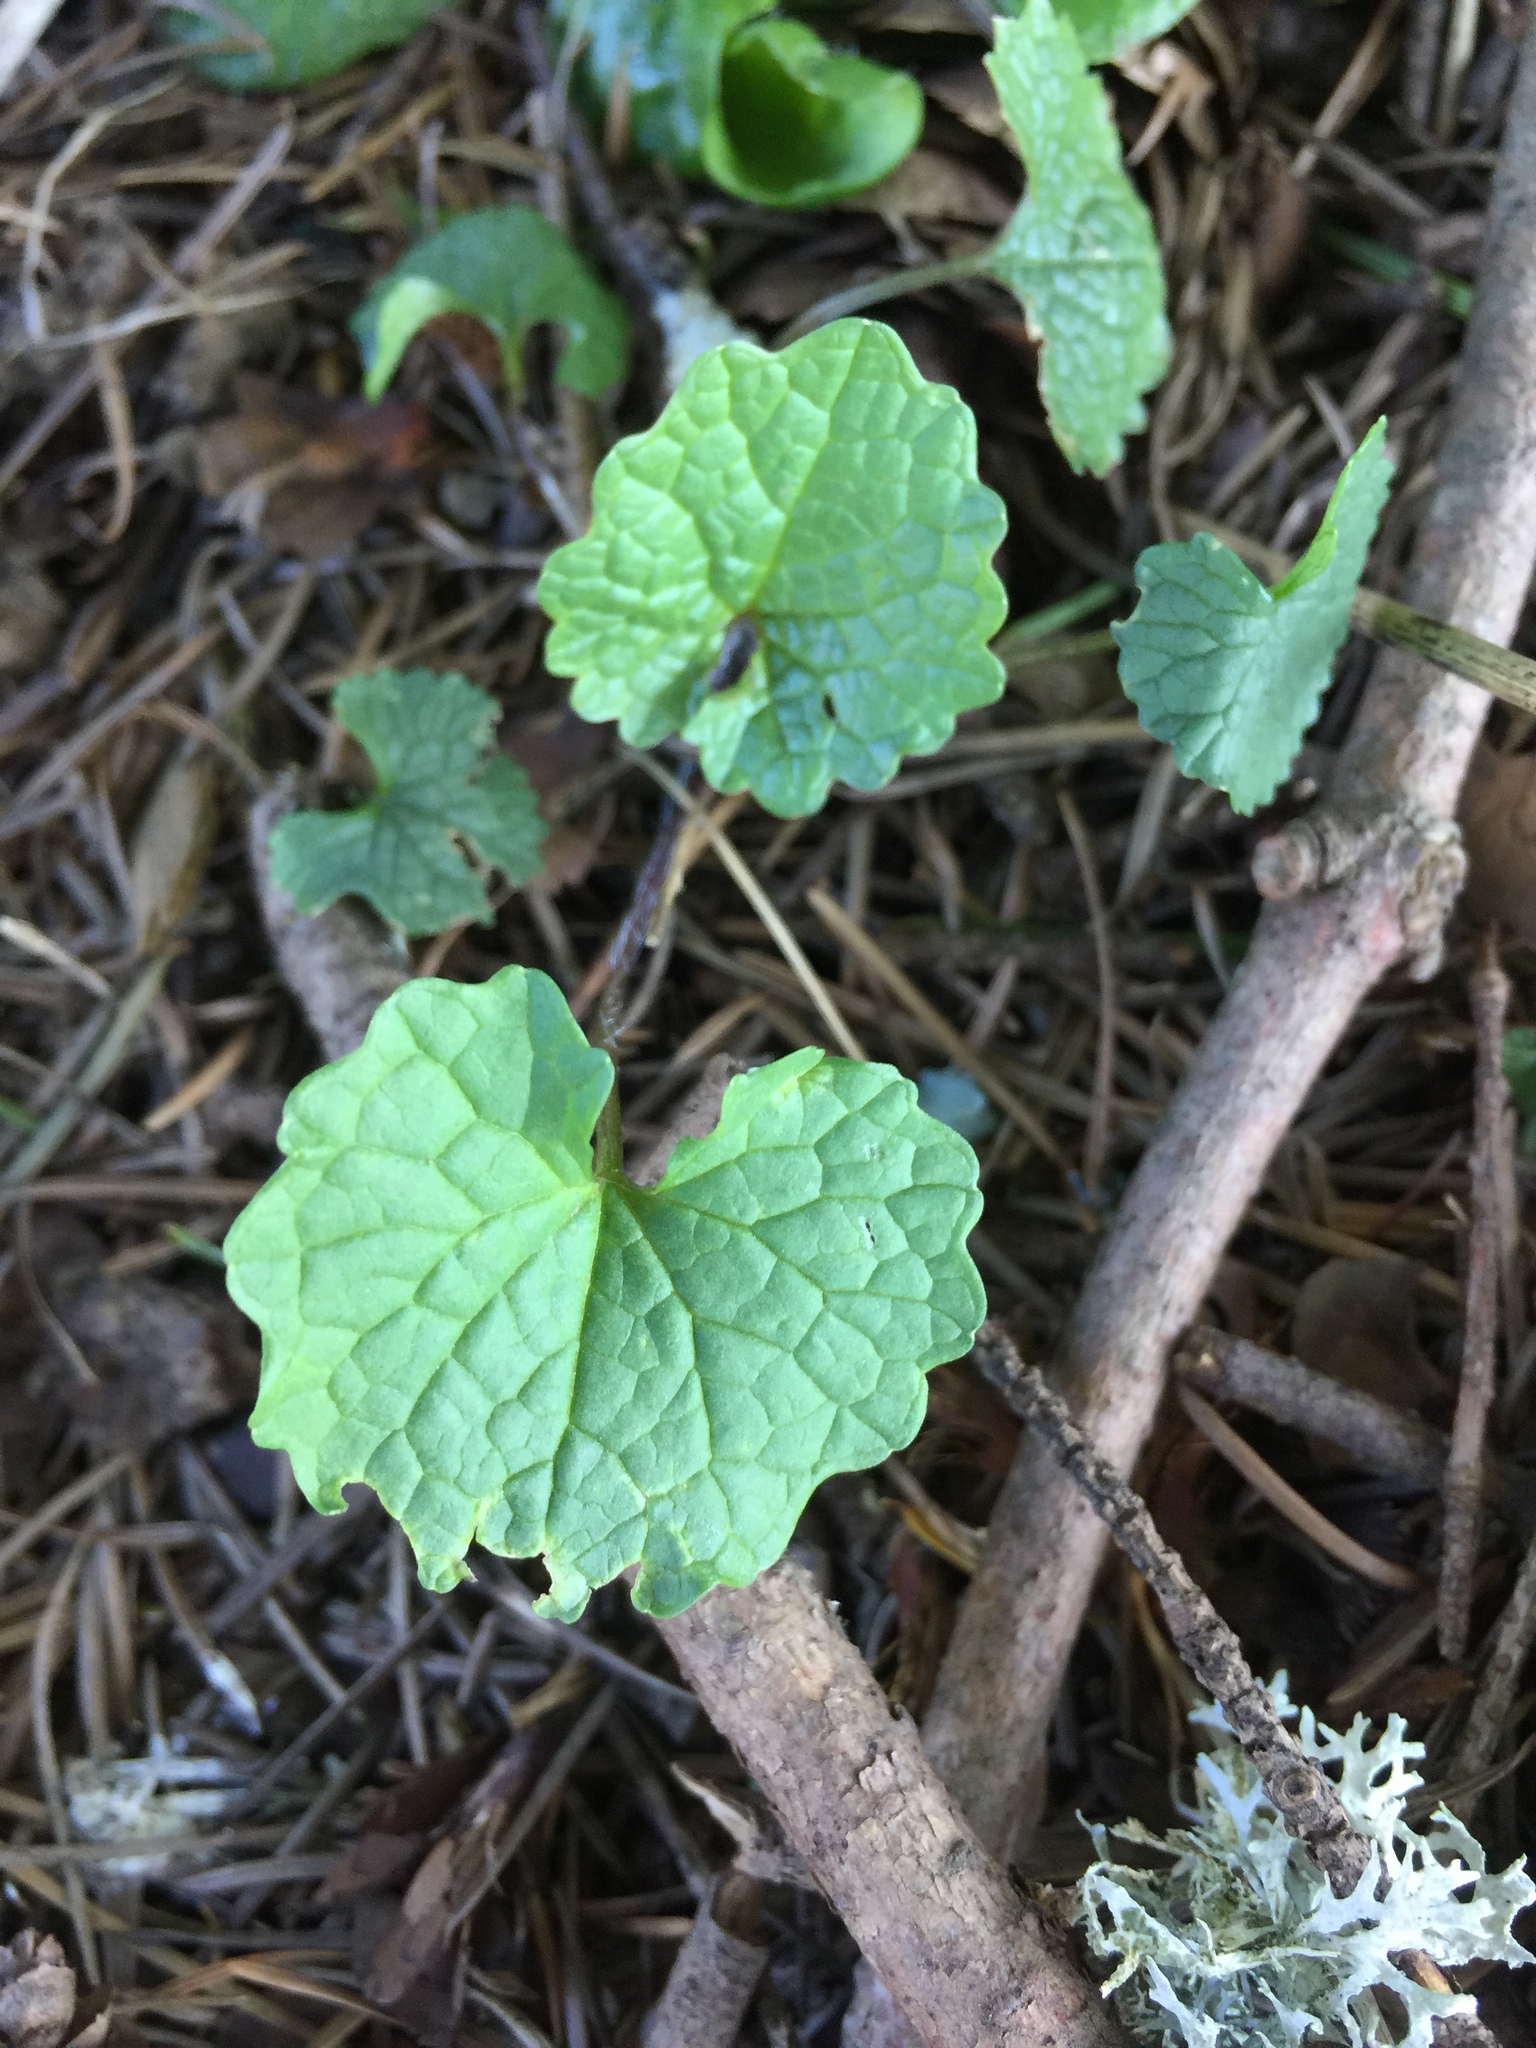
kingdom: Plantae
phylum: Tracheophyta
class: Magnoliopsida
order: Brassicales
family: Brassicaceae
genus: Alliaria
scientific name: Alliaria petiolata
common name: Garlic mustard
